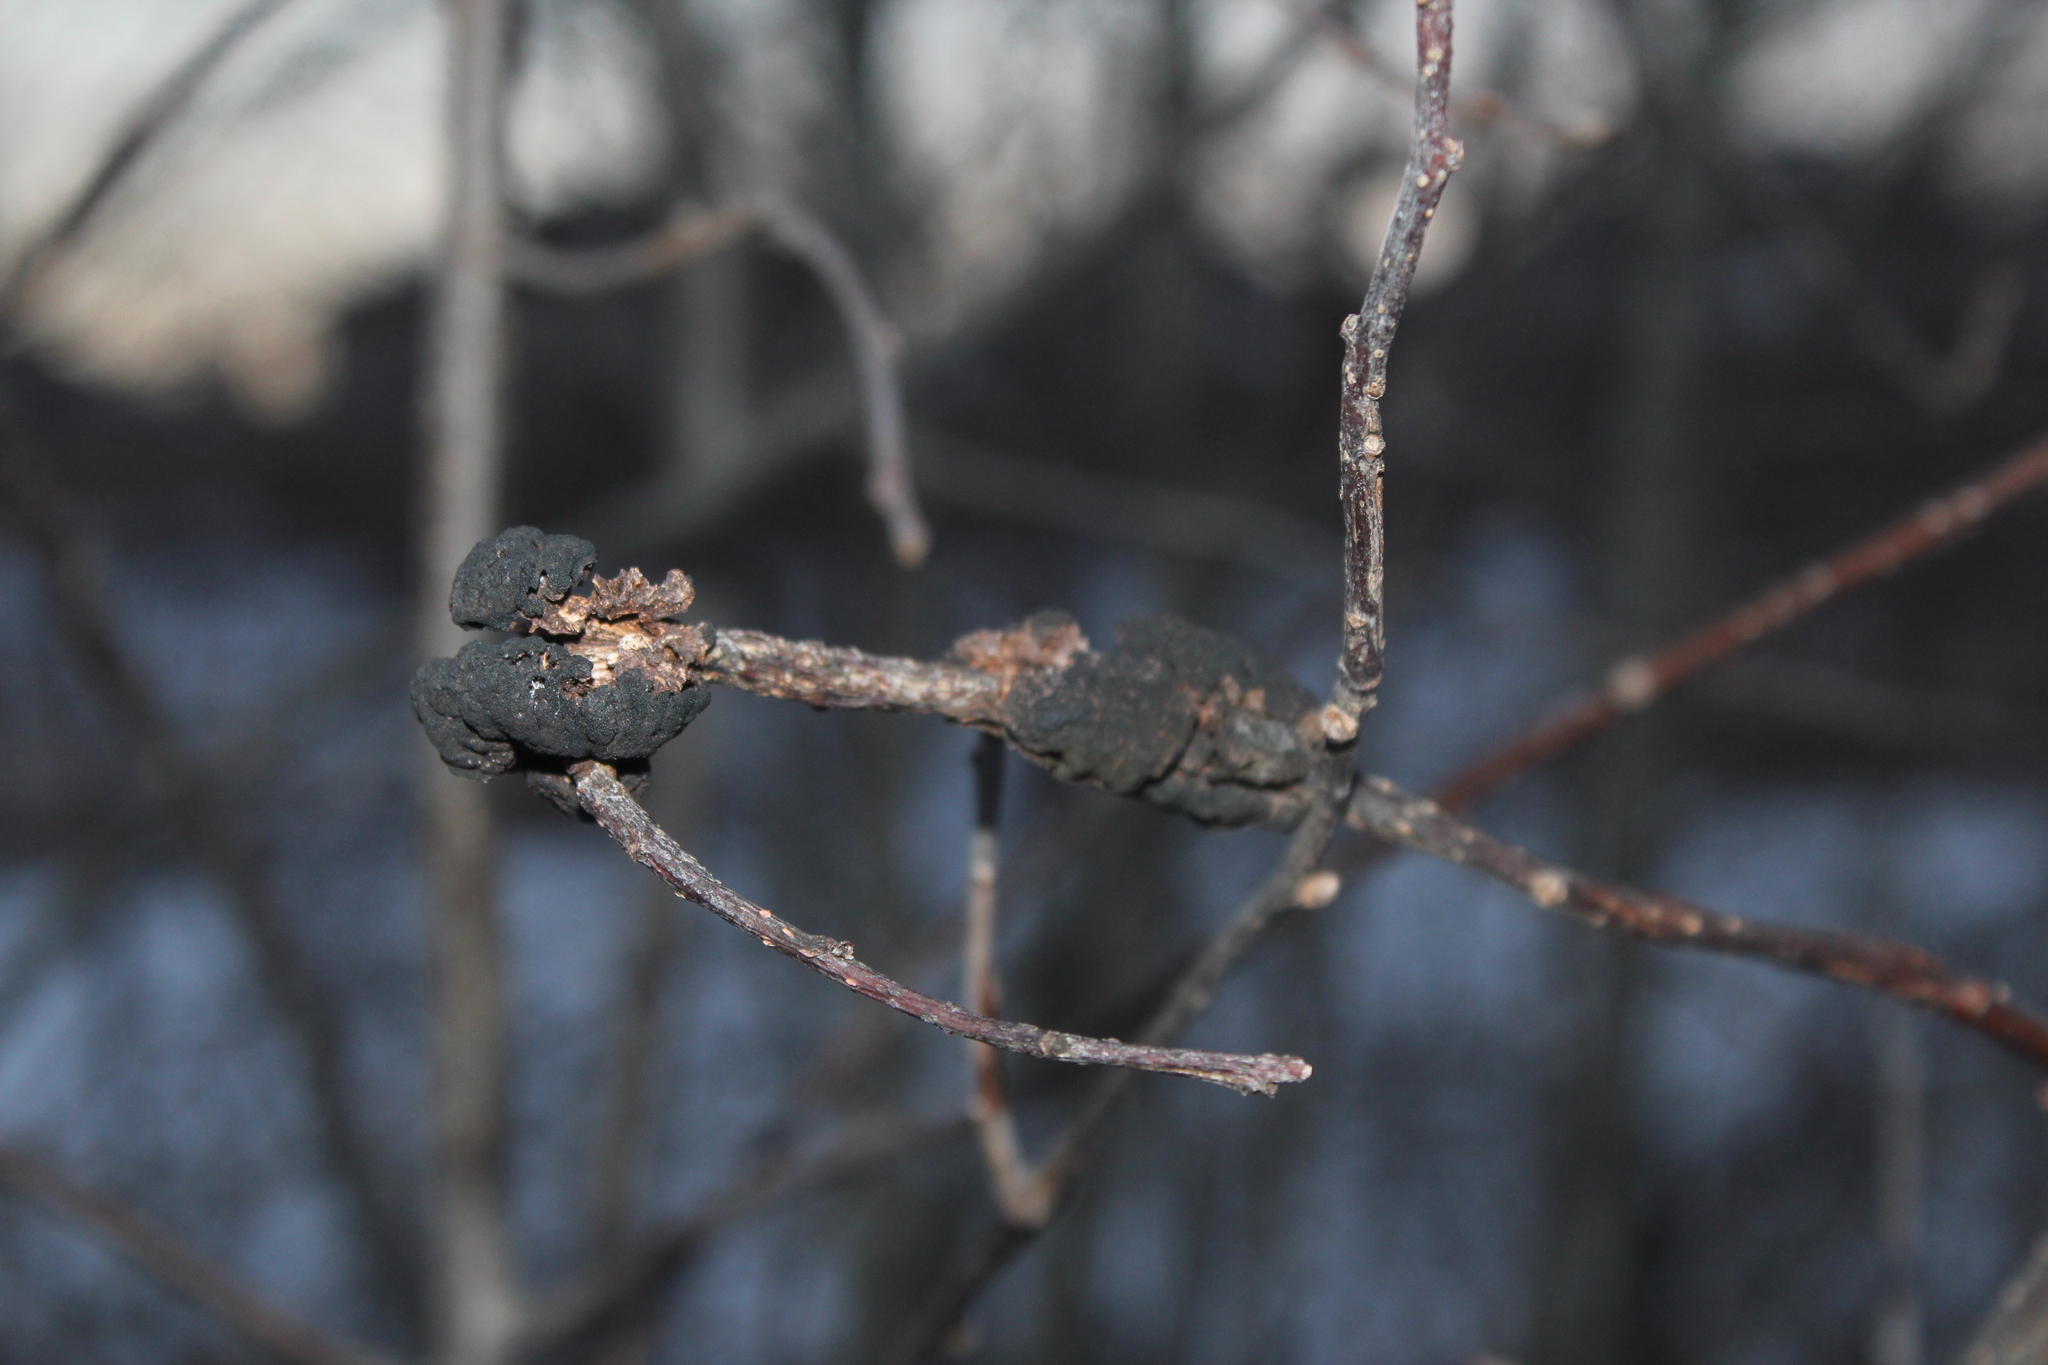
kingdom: Fungi
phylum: Ascomycota
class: Dothideomycetes
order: Venturiales
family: Venturiaceae
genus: Apiosporina
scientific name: Apiosporina morbosa
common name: Black knot
